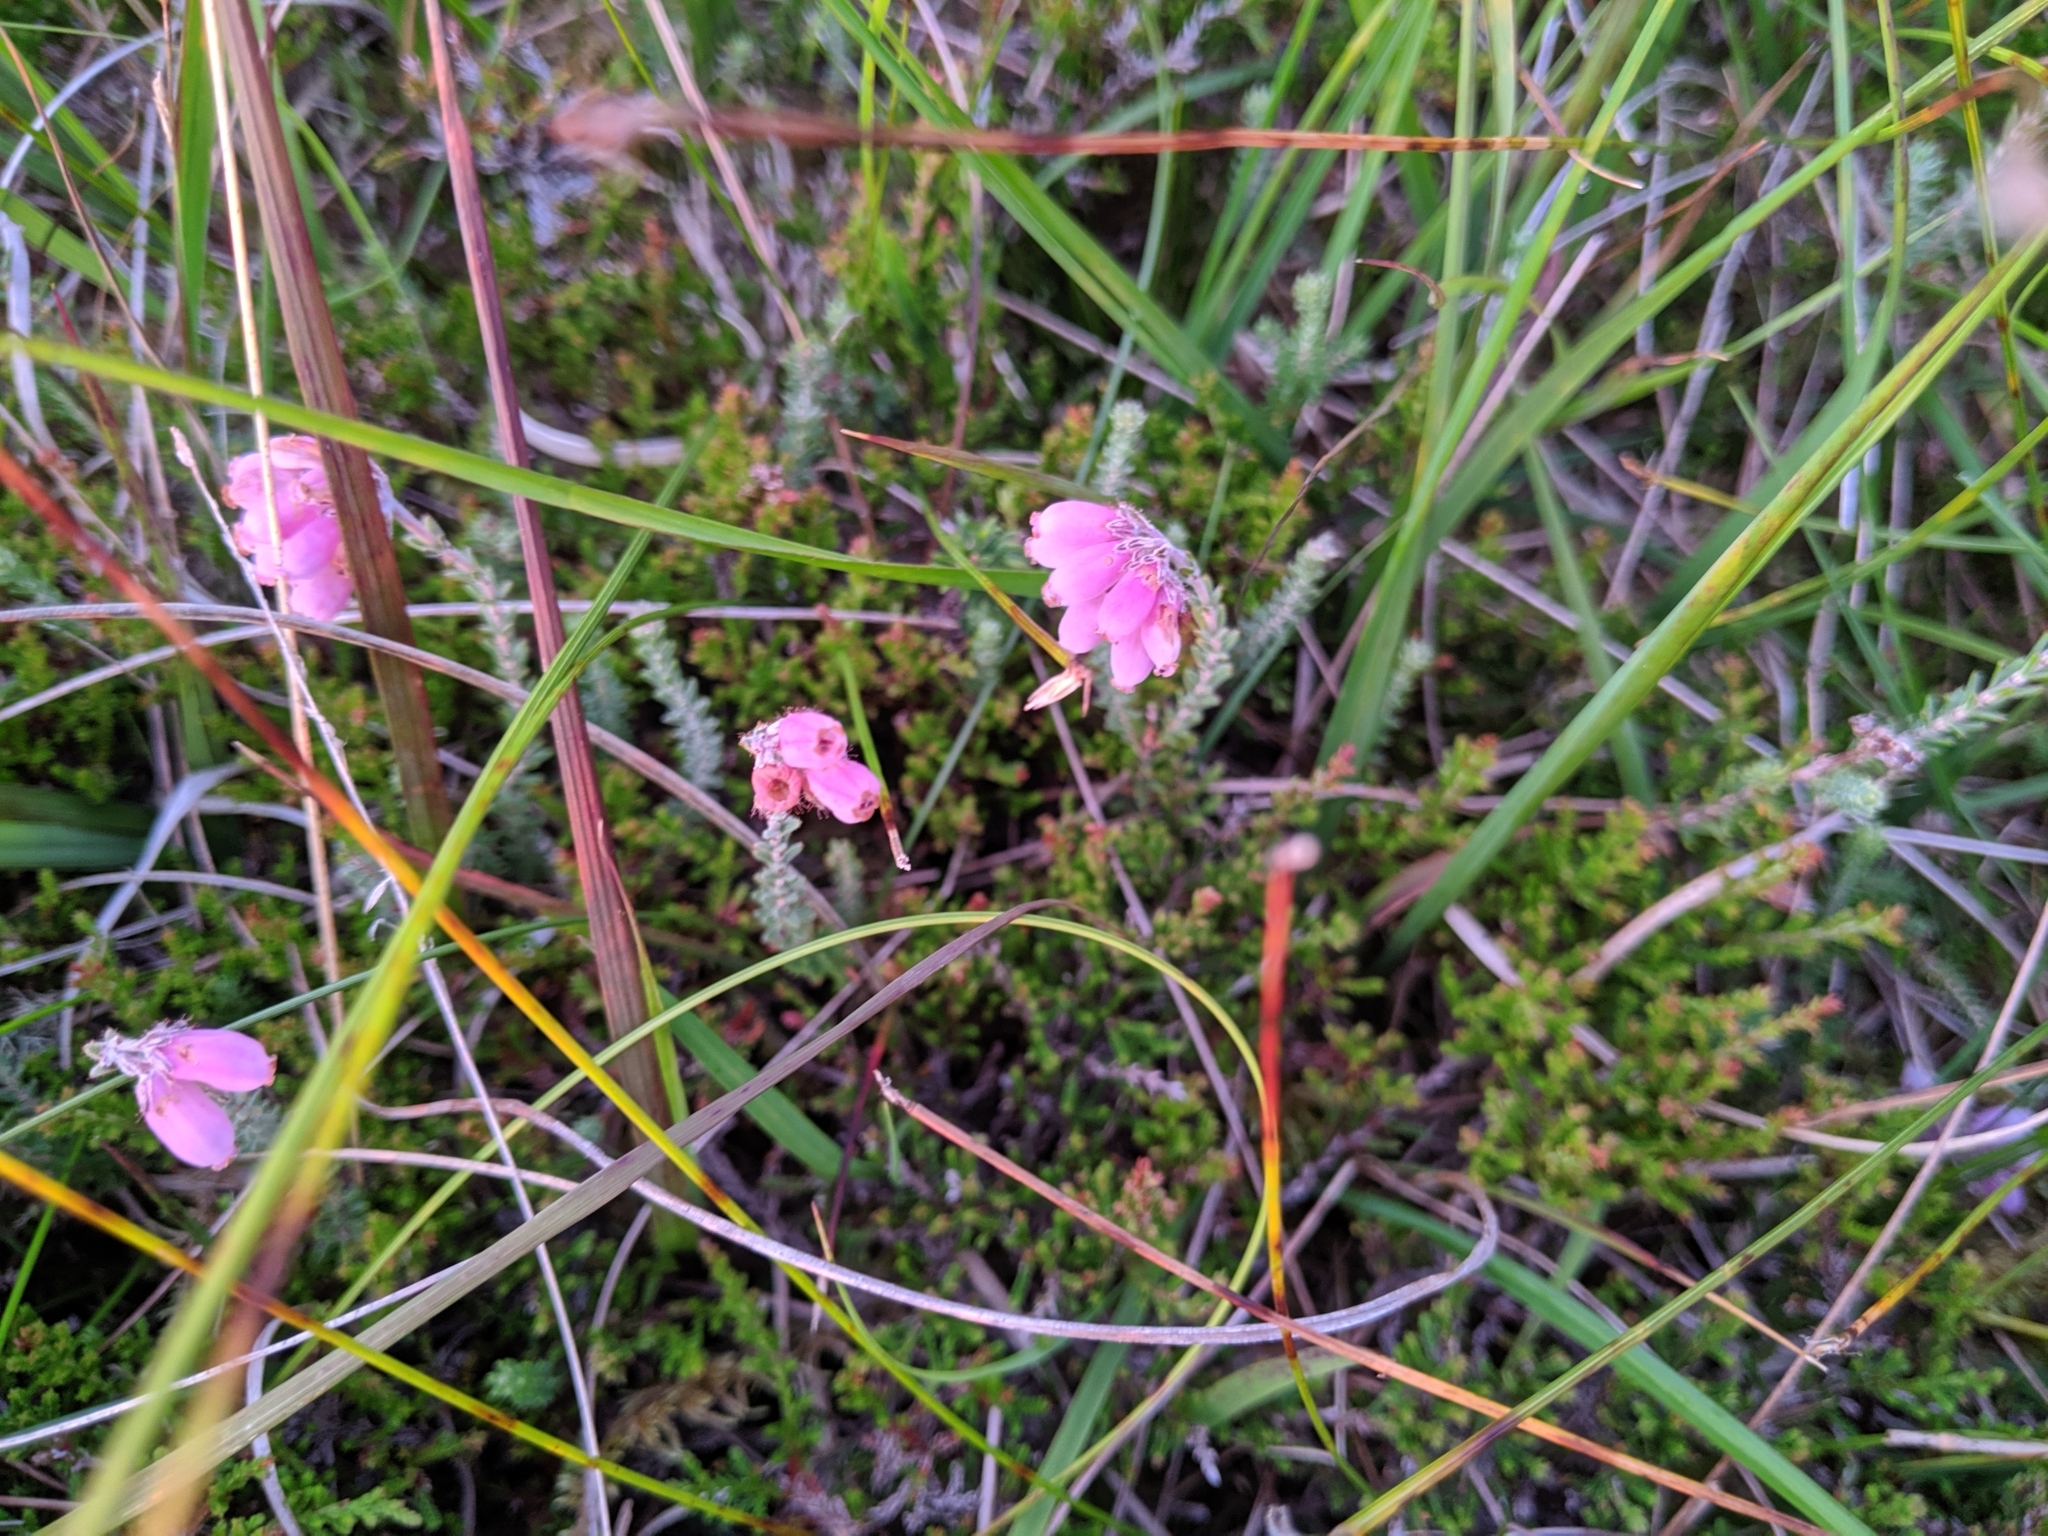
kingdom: Plantae
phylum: Tracheophyta
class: Magnoliopsida
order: Ericales
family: Ericaceae
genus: Erica
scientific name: Erica tetralix
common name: Cross-leaved heath
